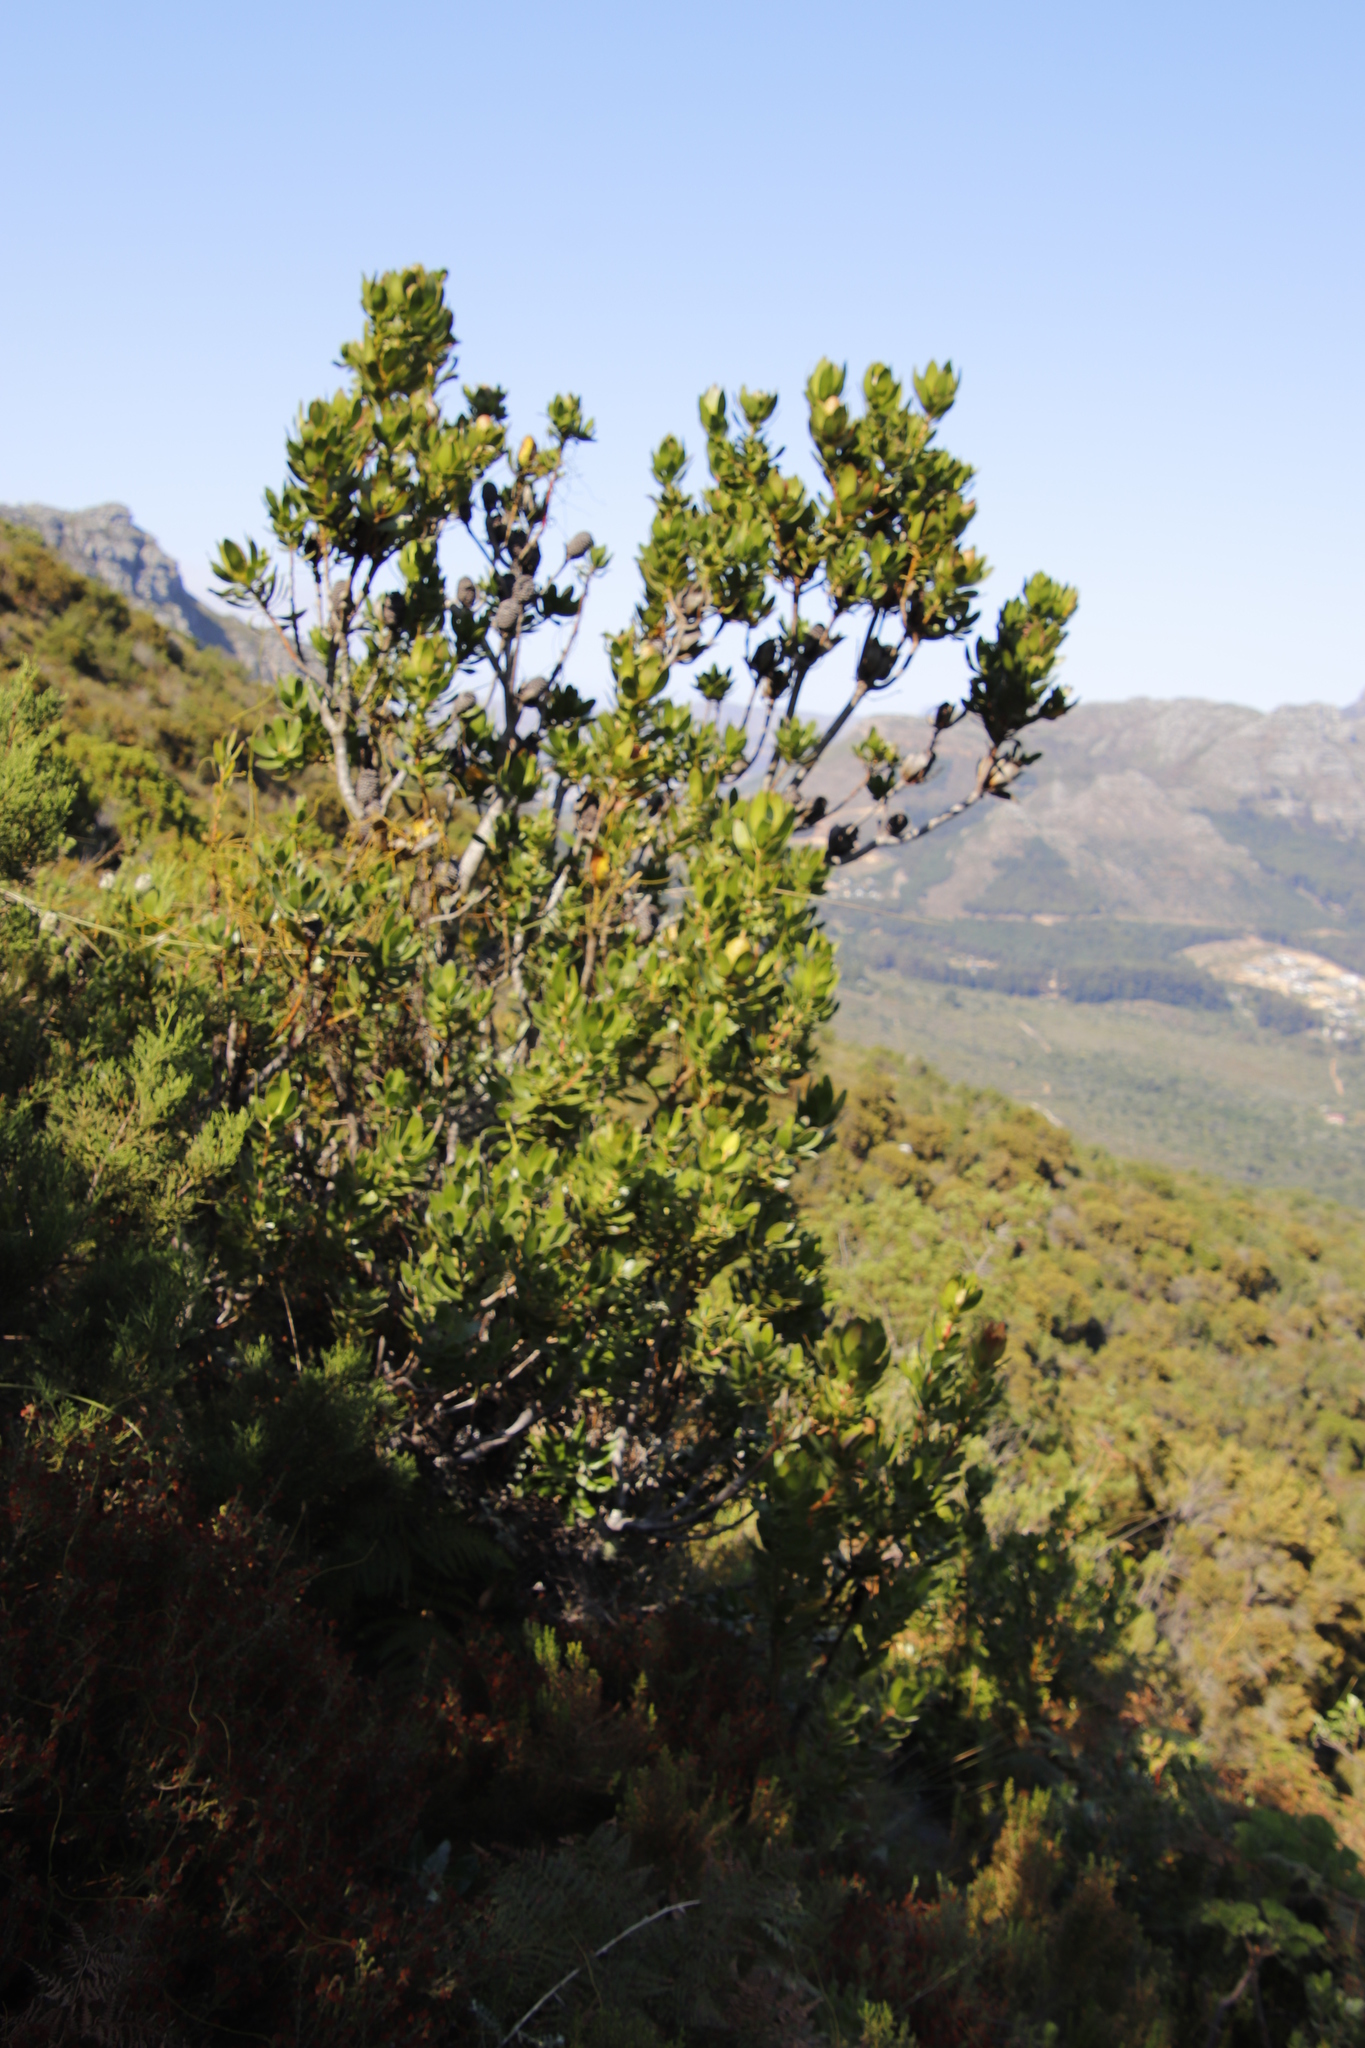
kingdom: Plantae
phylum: Tracheophyta
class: Magnoliopsida
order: Proteales
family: Proteaceae
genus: Leucadendron
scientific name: Leucadendron strobilinum
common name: Mountain rose
